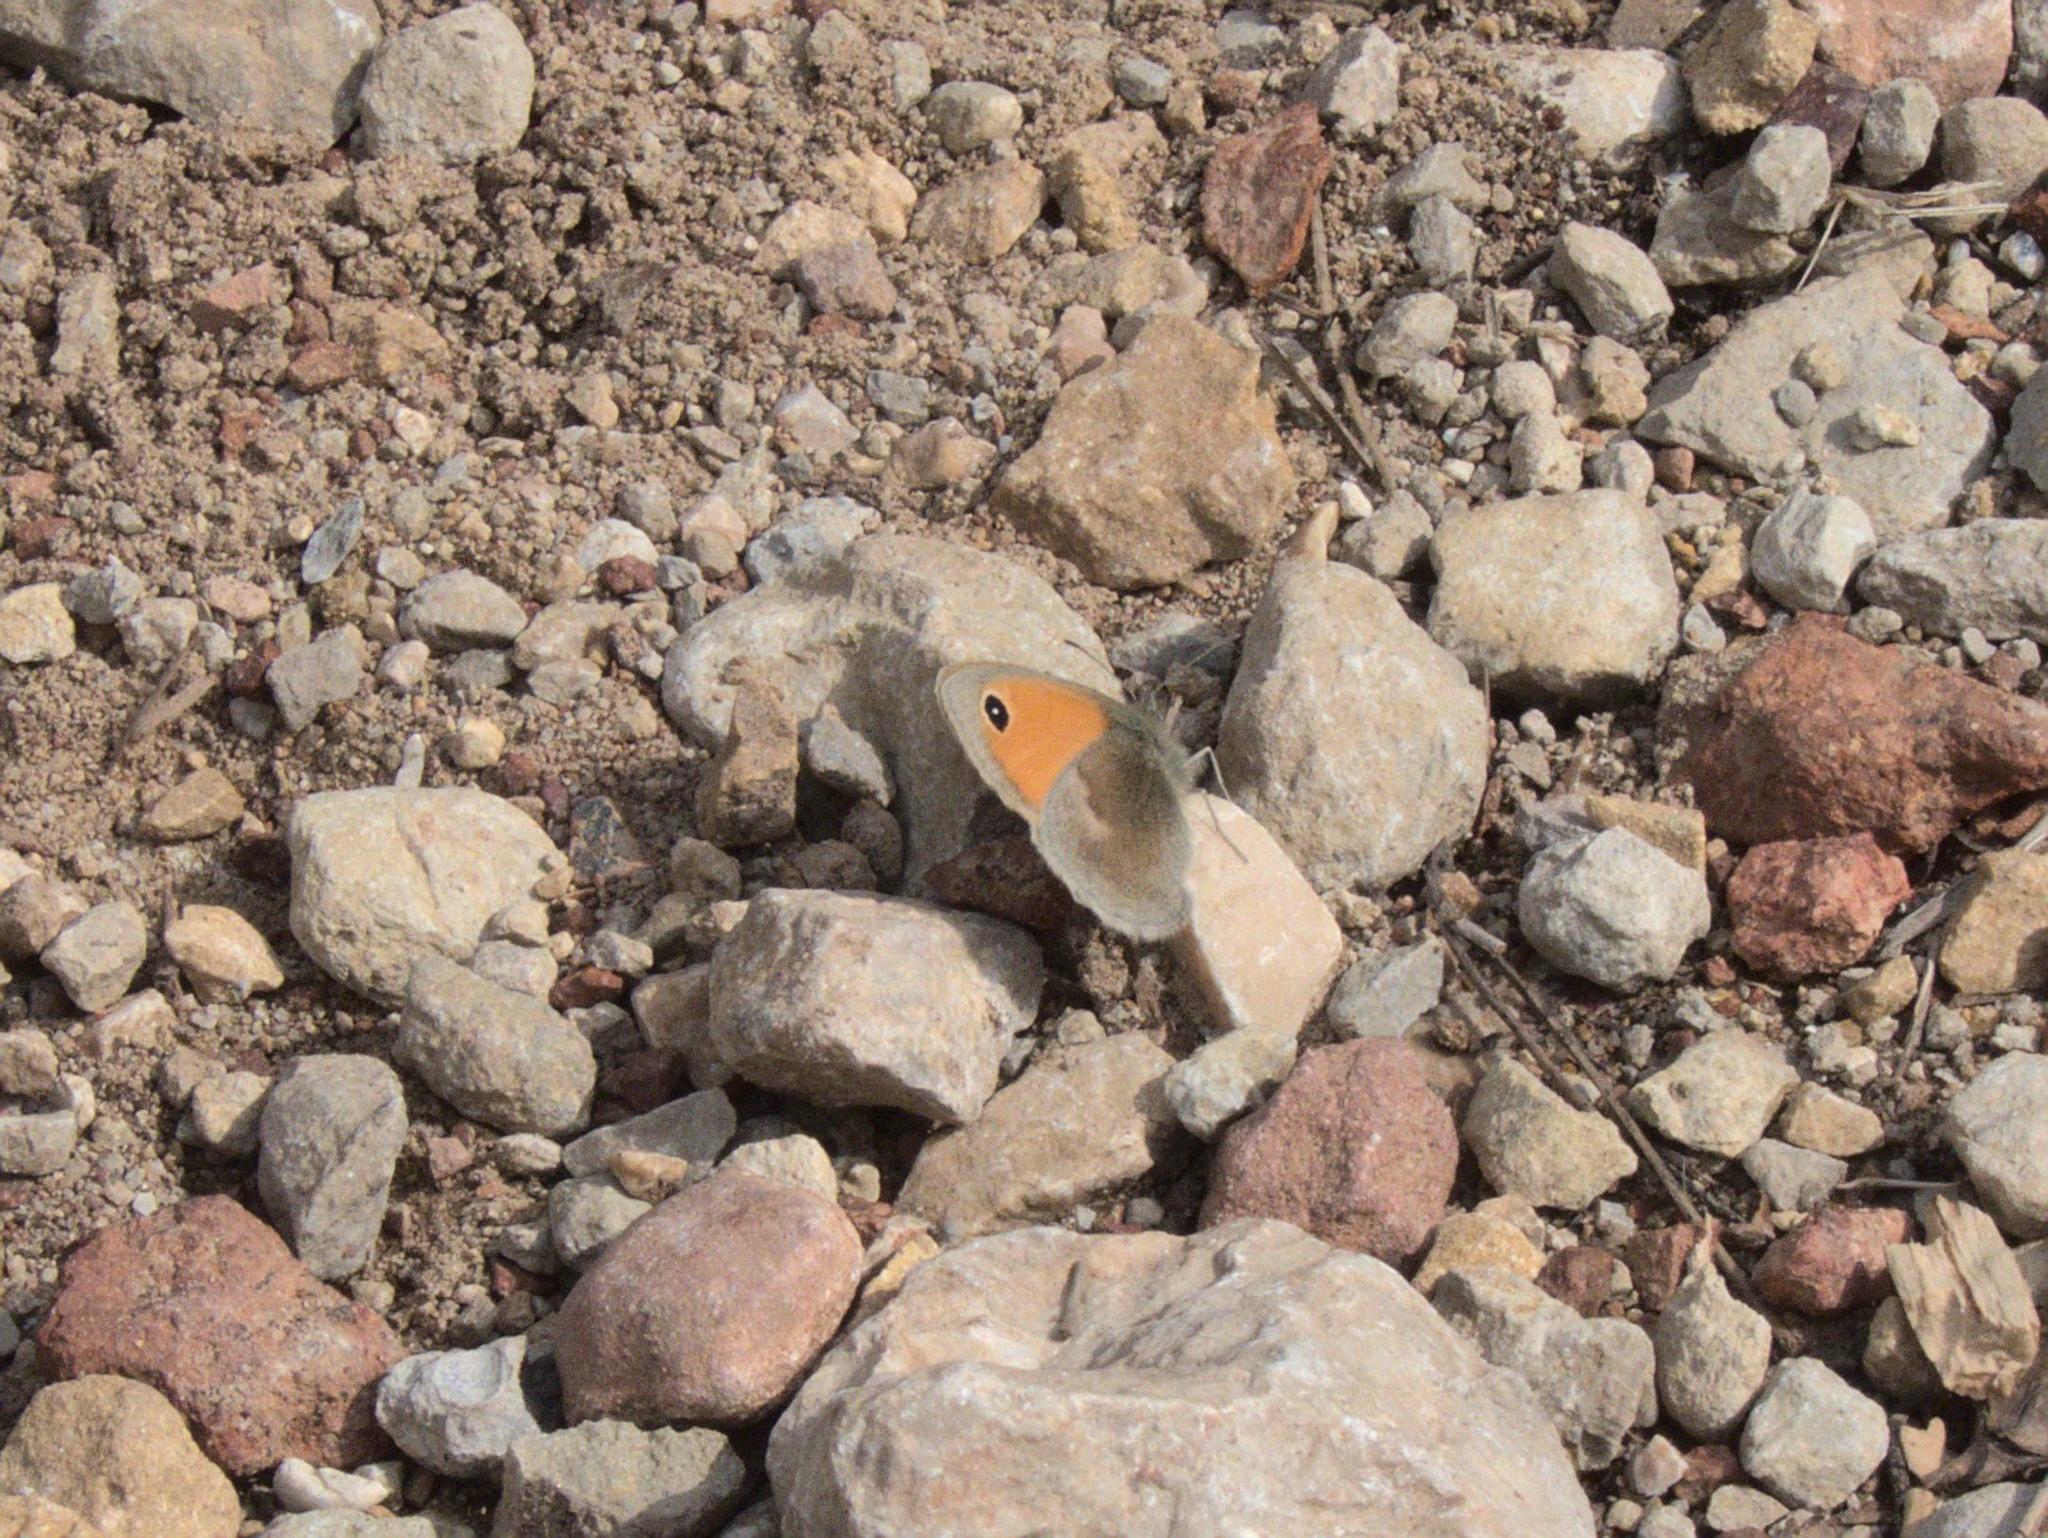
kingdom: Animalia
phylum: Arthropoda
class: Insecta
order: Lepidoptera
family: Nymphalidae
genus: Coenonympha
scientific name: Coenonympha pamphilus
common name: Small heath
